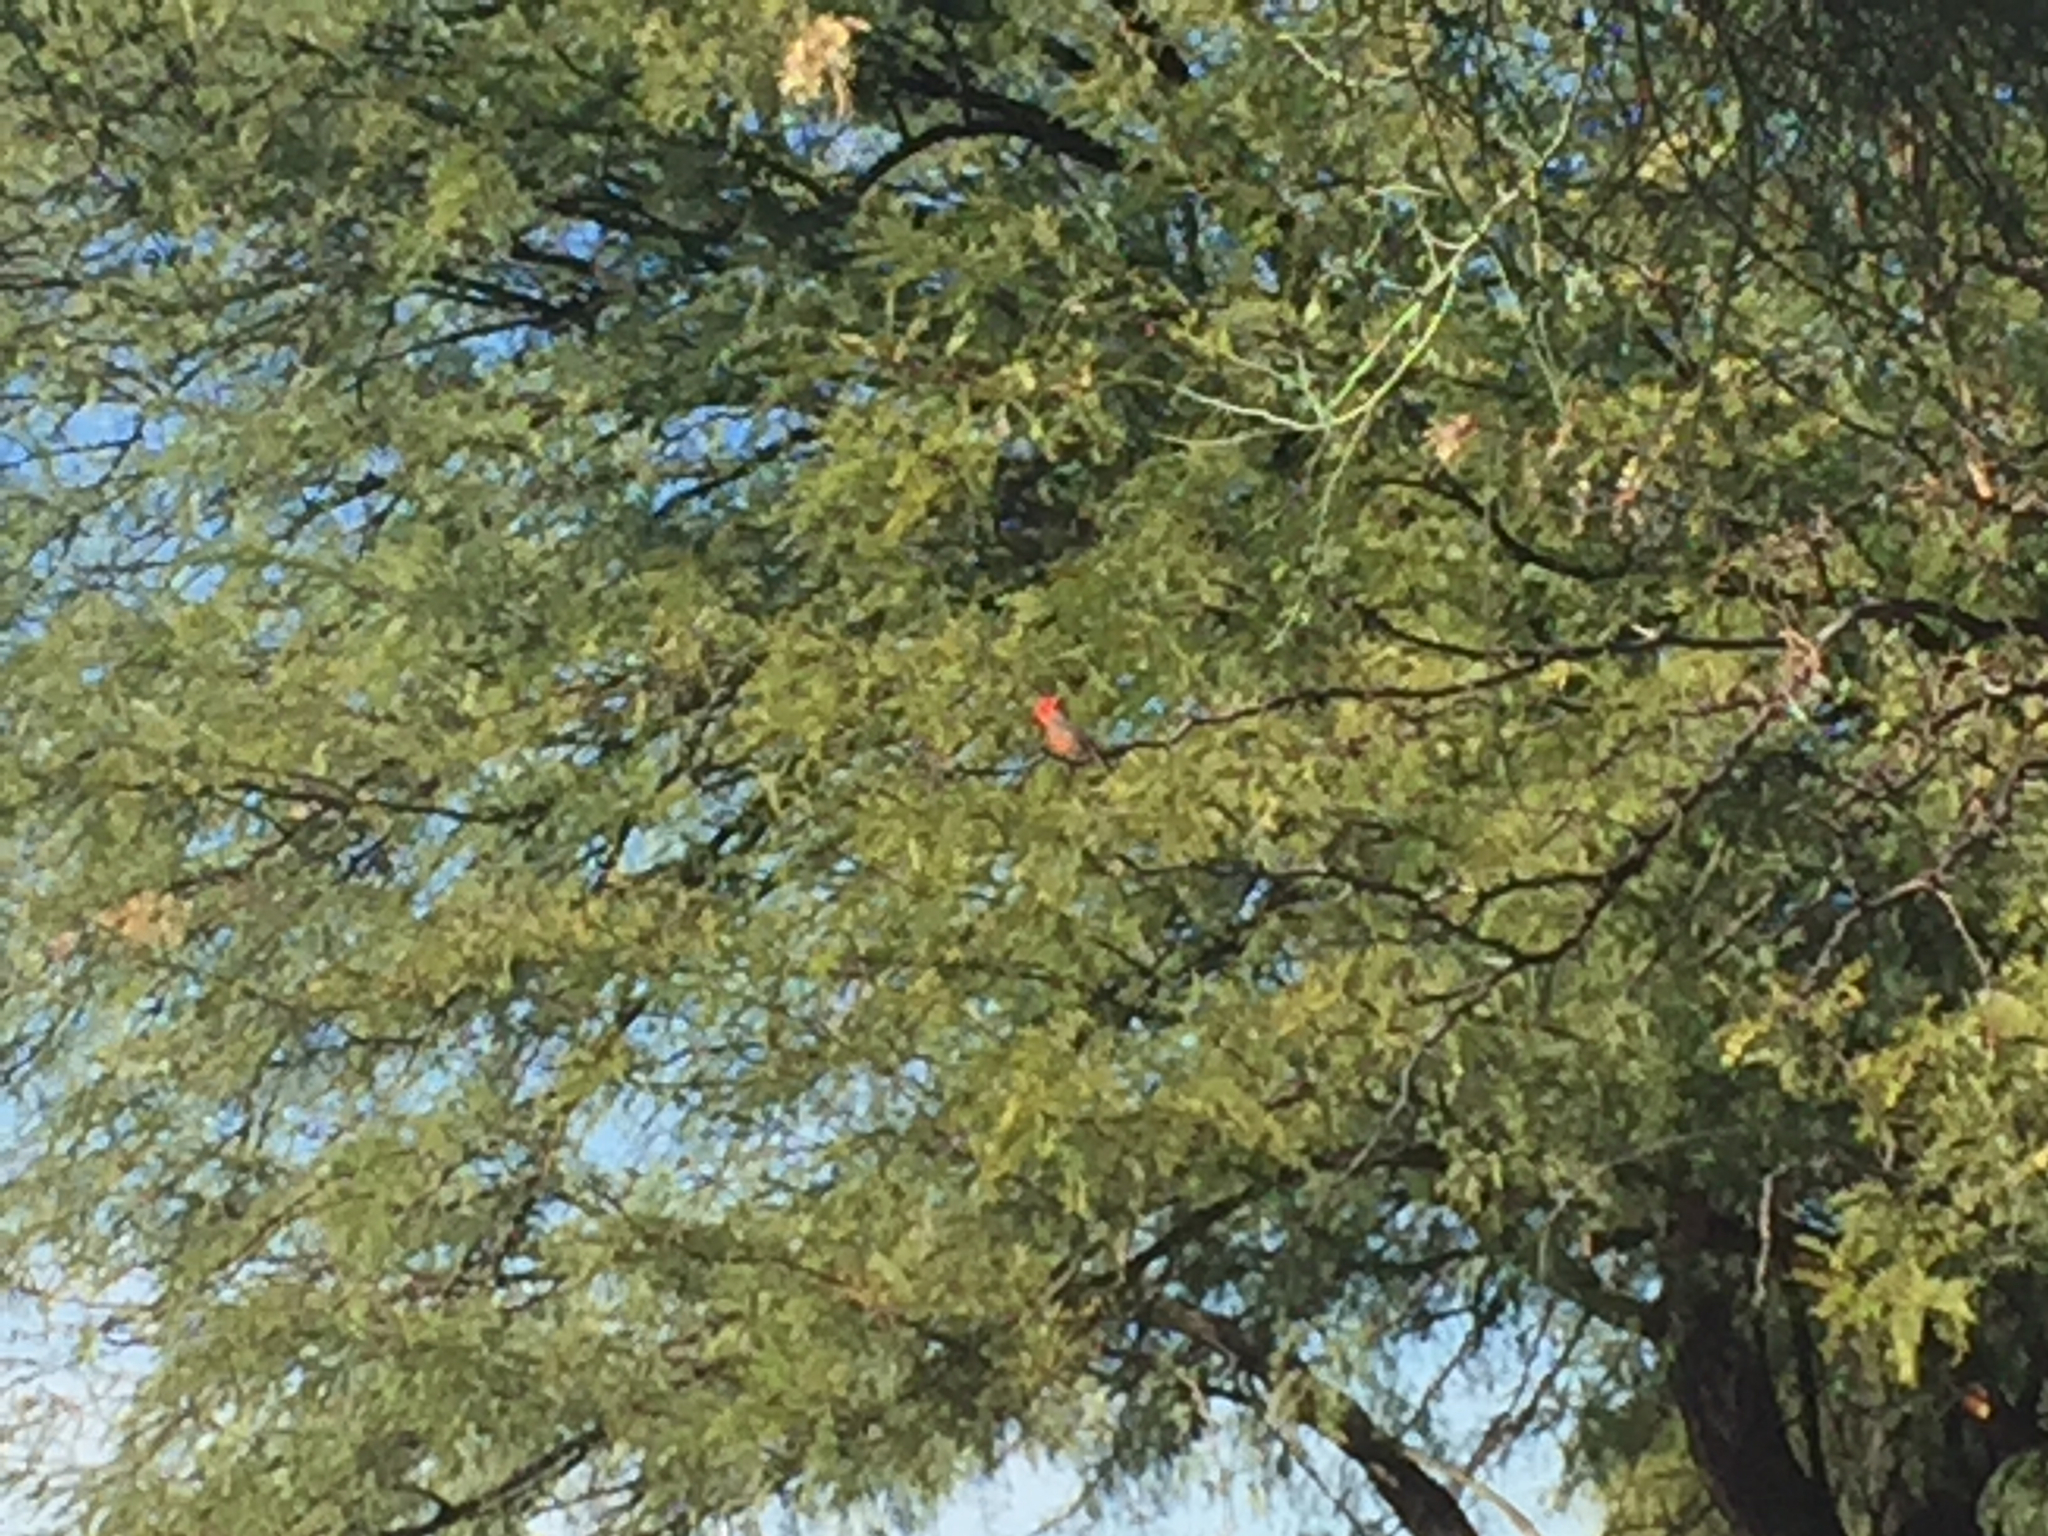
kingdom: Animalia
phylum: Chordata
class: Aves
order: Passeriformes
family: Tyrannidae
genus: Pyrocephalus
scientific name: Pyrocephalus rubinus
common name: Vermilion flycatcher
